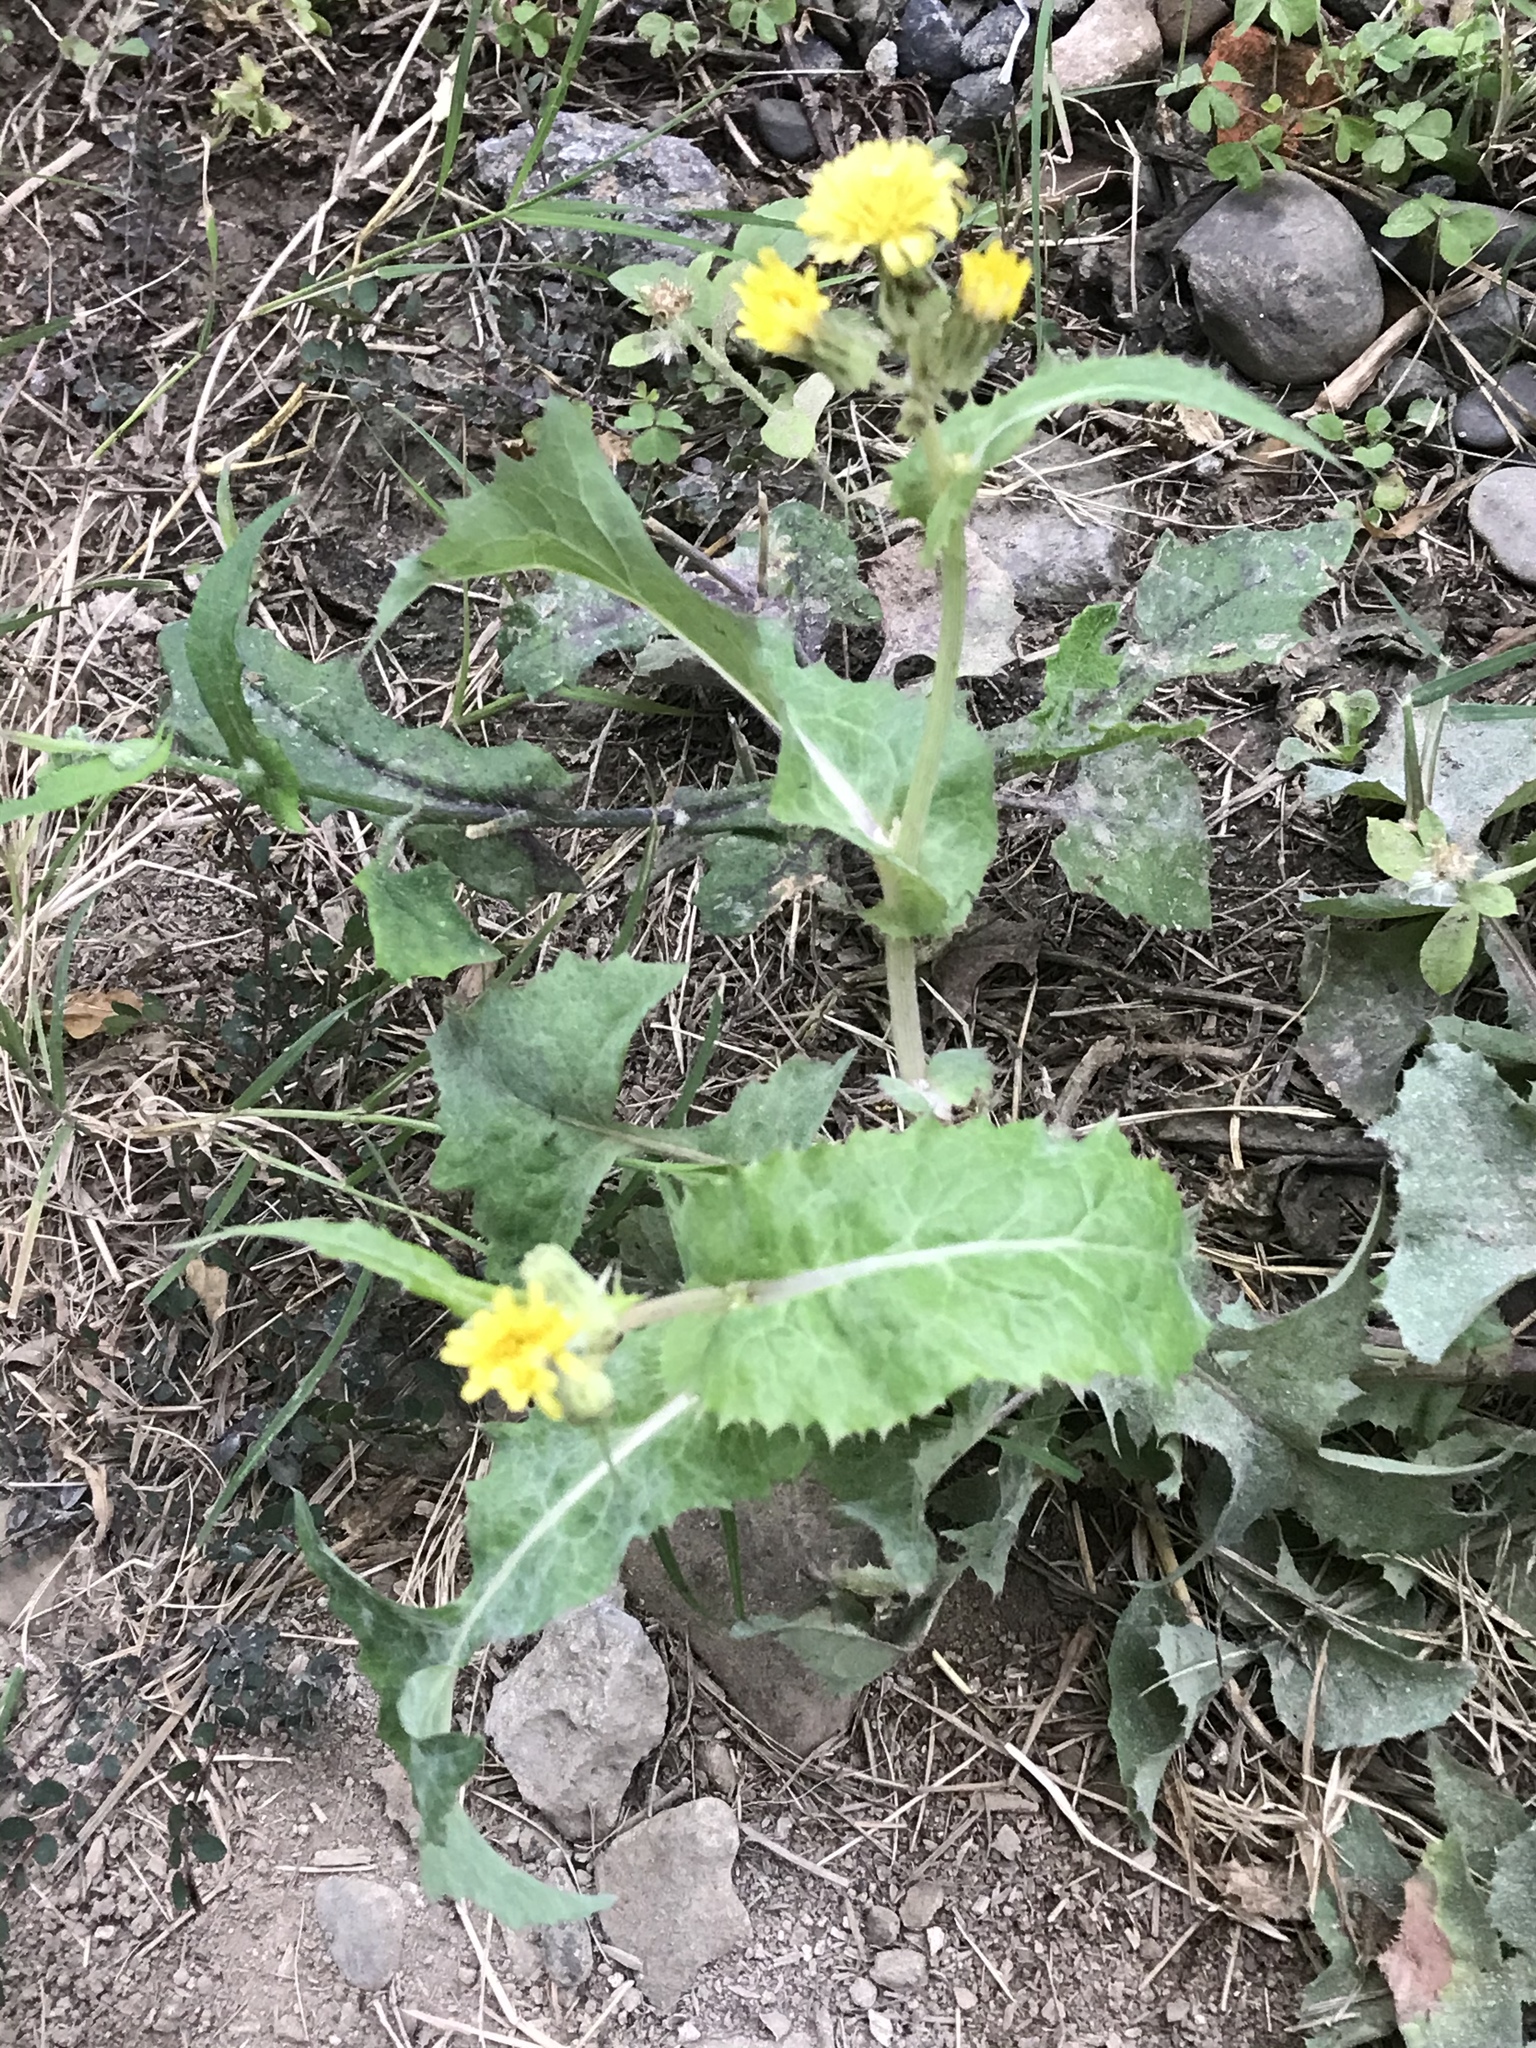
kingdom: Plantae
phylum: Tracheophyta
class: Magnoliopsida
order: Asterales
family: Asteraceae
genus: Sonchus
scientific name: Sonchus asper
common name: Prickly sow-thistle
